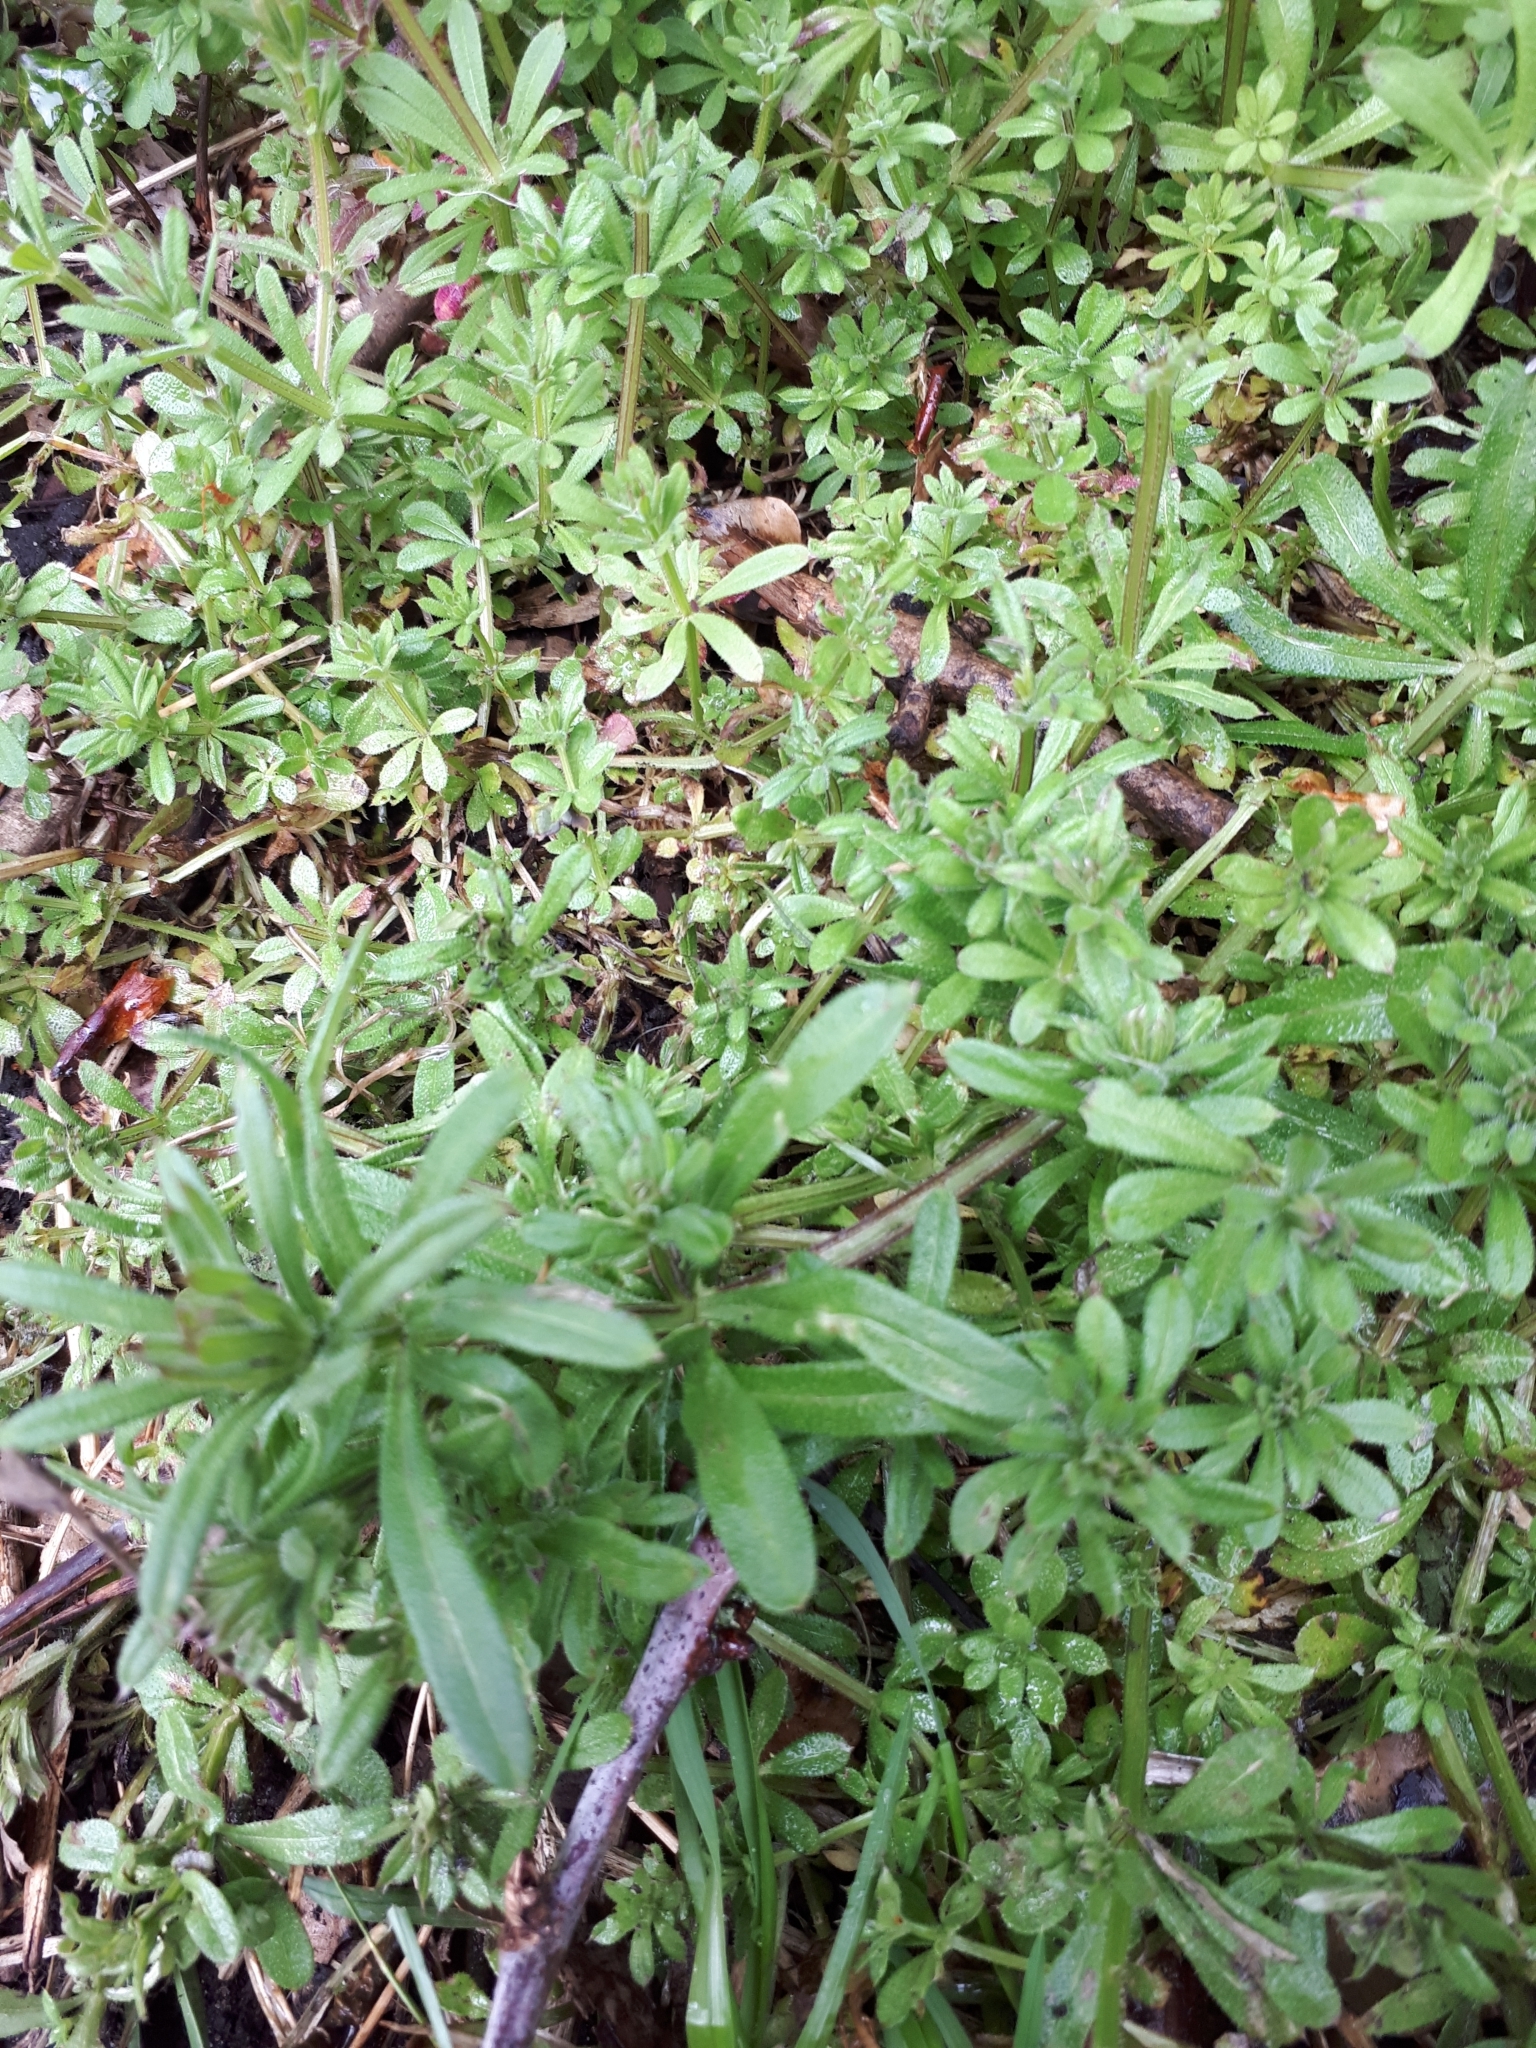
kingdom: Plantae
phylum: Tracheophyta
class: Magnoliopsida
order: Gentianales
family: Rubiaceae
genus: Galium
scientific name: Galium aparine
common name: Cleavers
